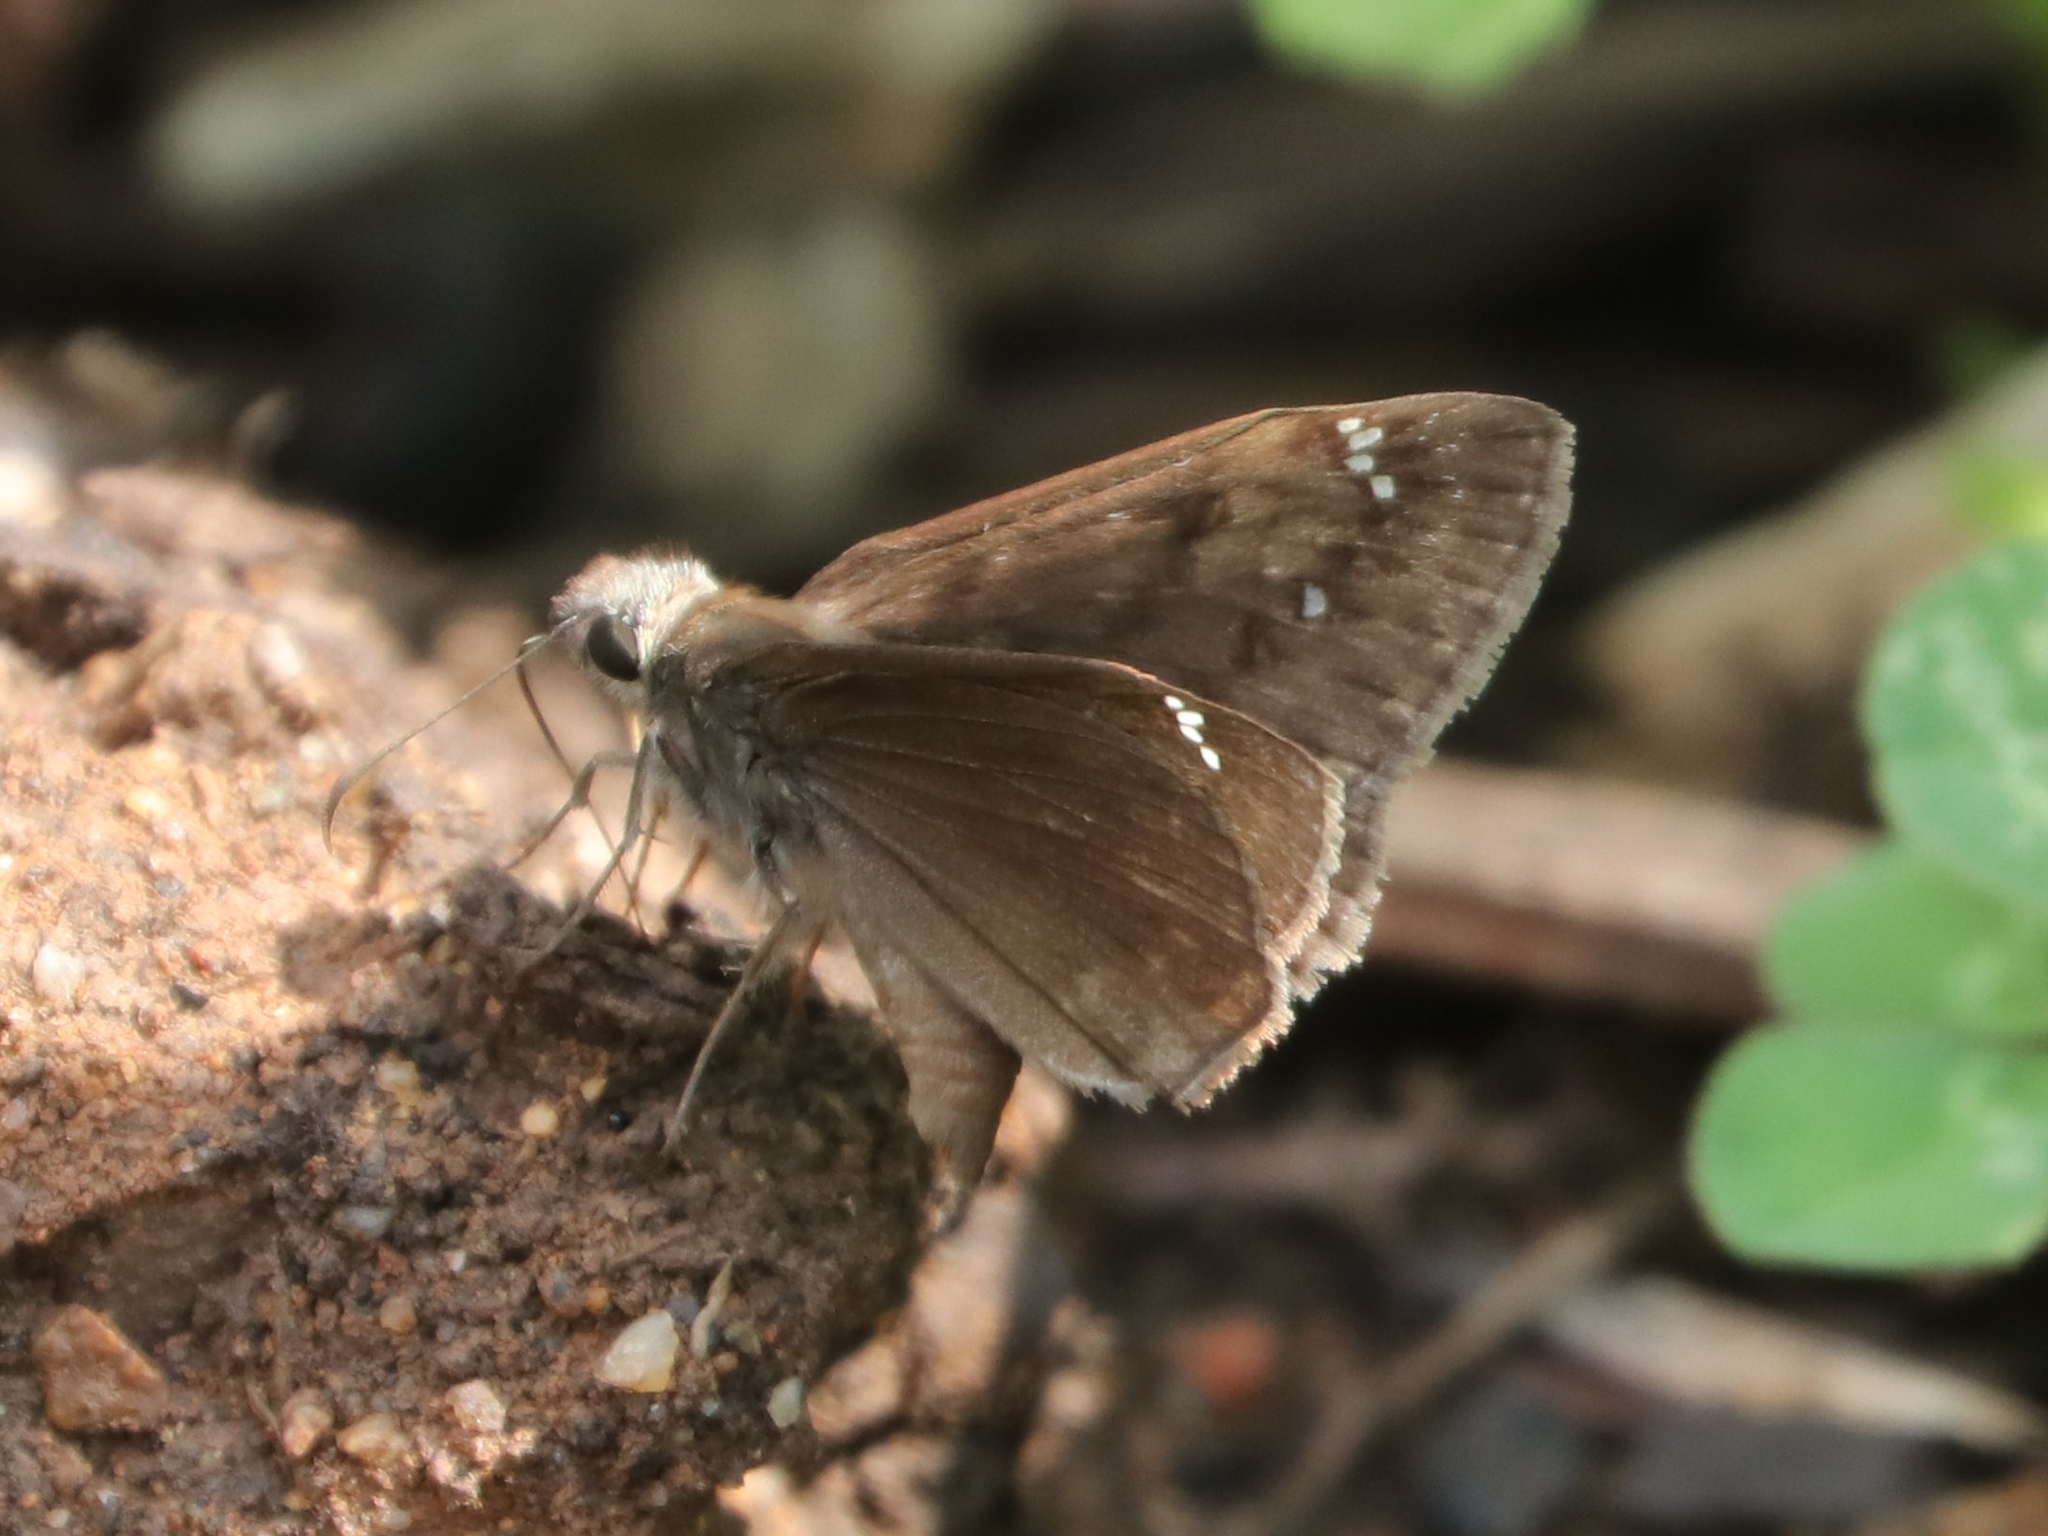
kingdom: Animalia
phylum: Arthropoda
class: Insecta
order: Lepidoptera
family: Hesperiidae
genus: Erynnis
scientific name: Erynnis horatius
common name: Horace's duskywing
